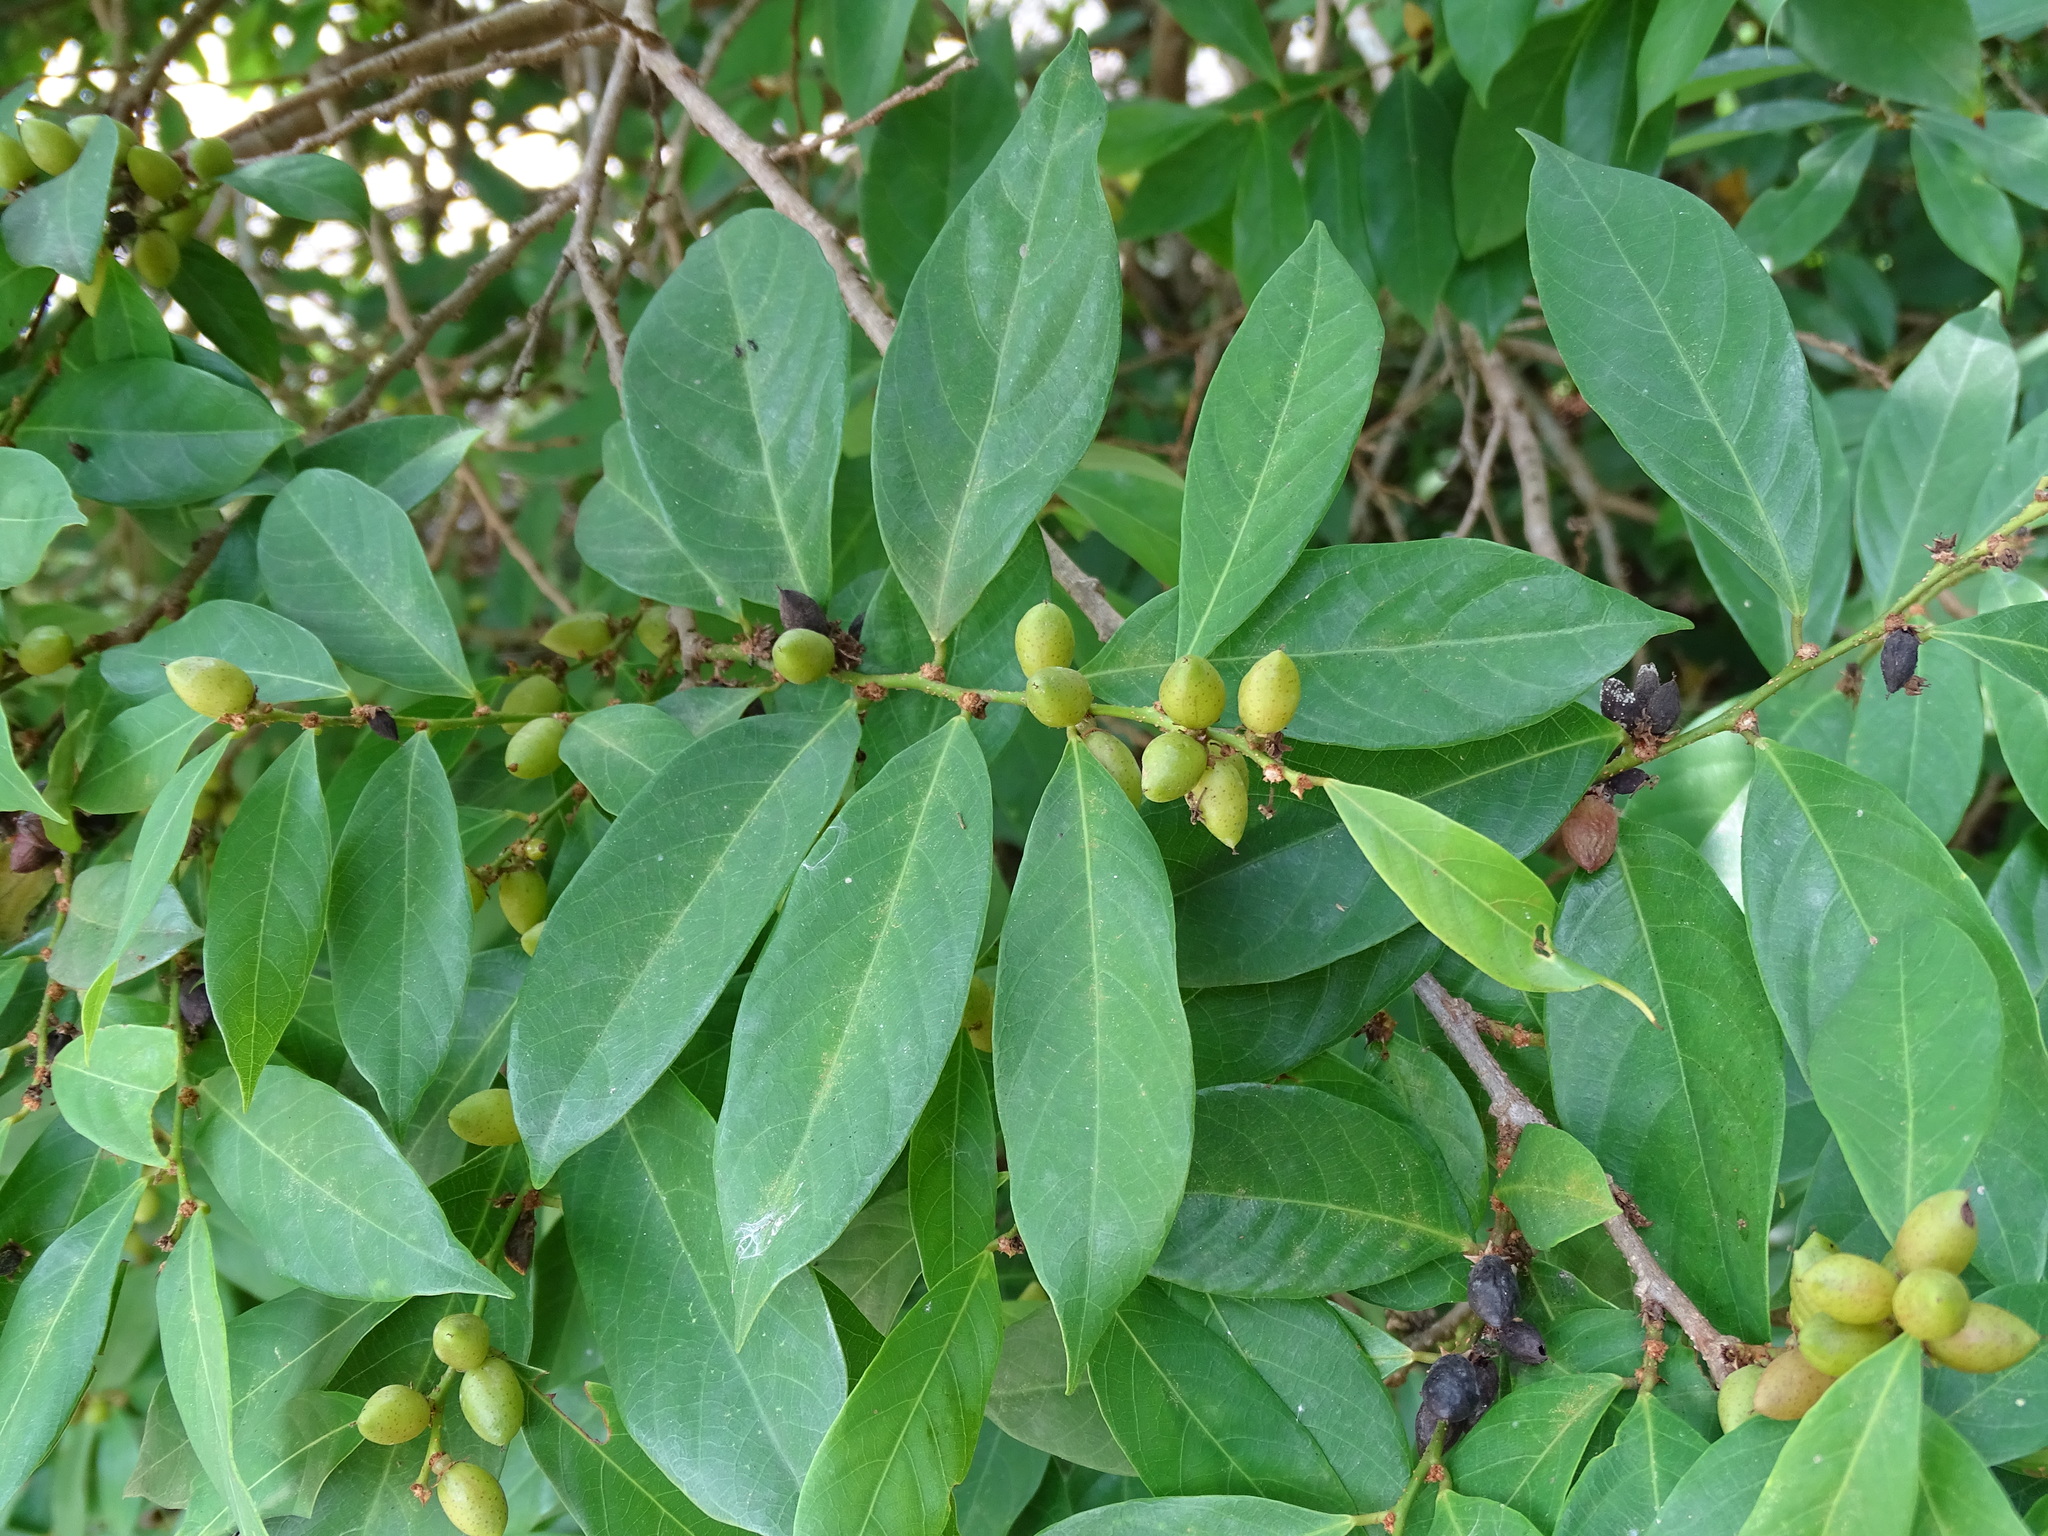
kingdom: Plantae
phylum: Tracheophyta
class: Magnoliopsida
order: Malpighiales
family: Phyllanthaceae
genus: Bridelia
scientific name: Bridelia tomentosa
